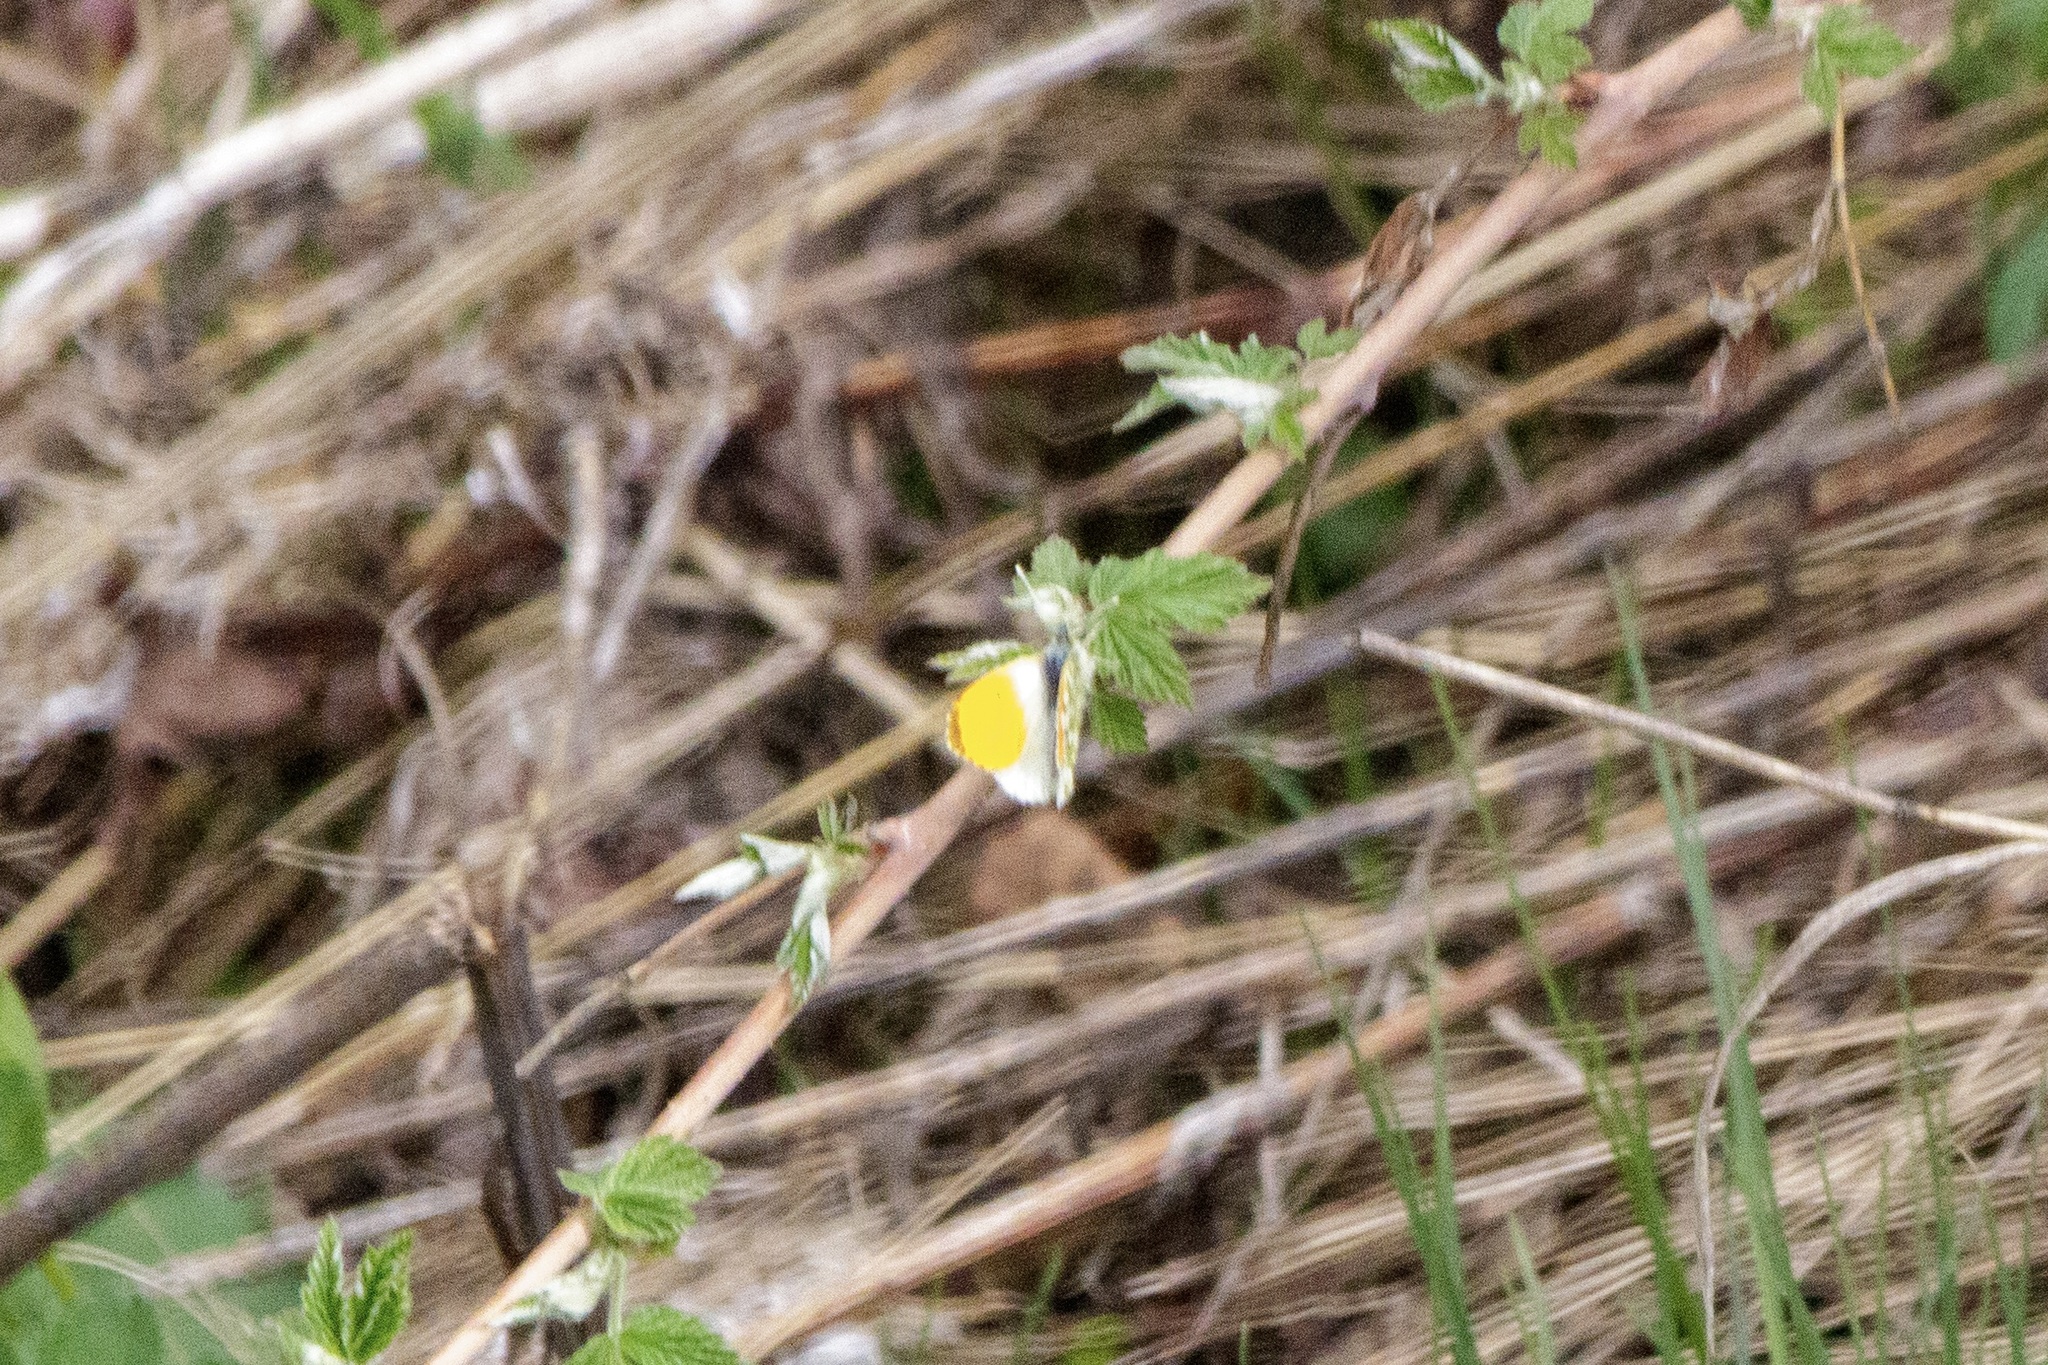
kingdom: Animalia
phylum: Arthropoda
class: Insecta
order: Lepidoptera
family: Pieridae
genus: Anthocharis
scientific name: Anthocharis cardamines
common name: Orange-tip
